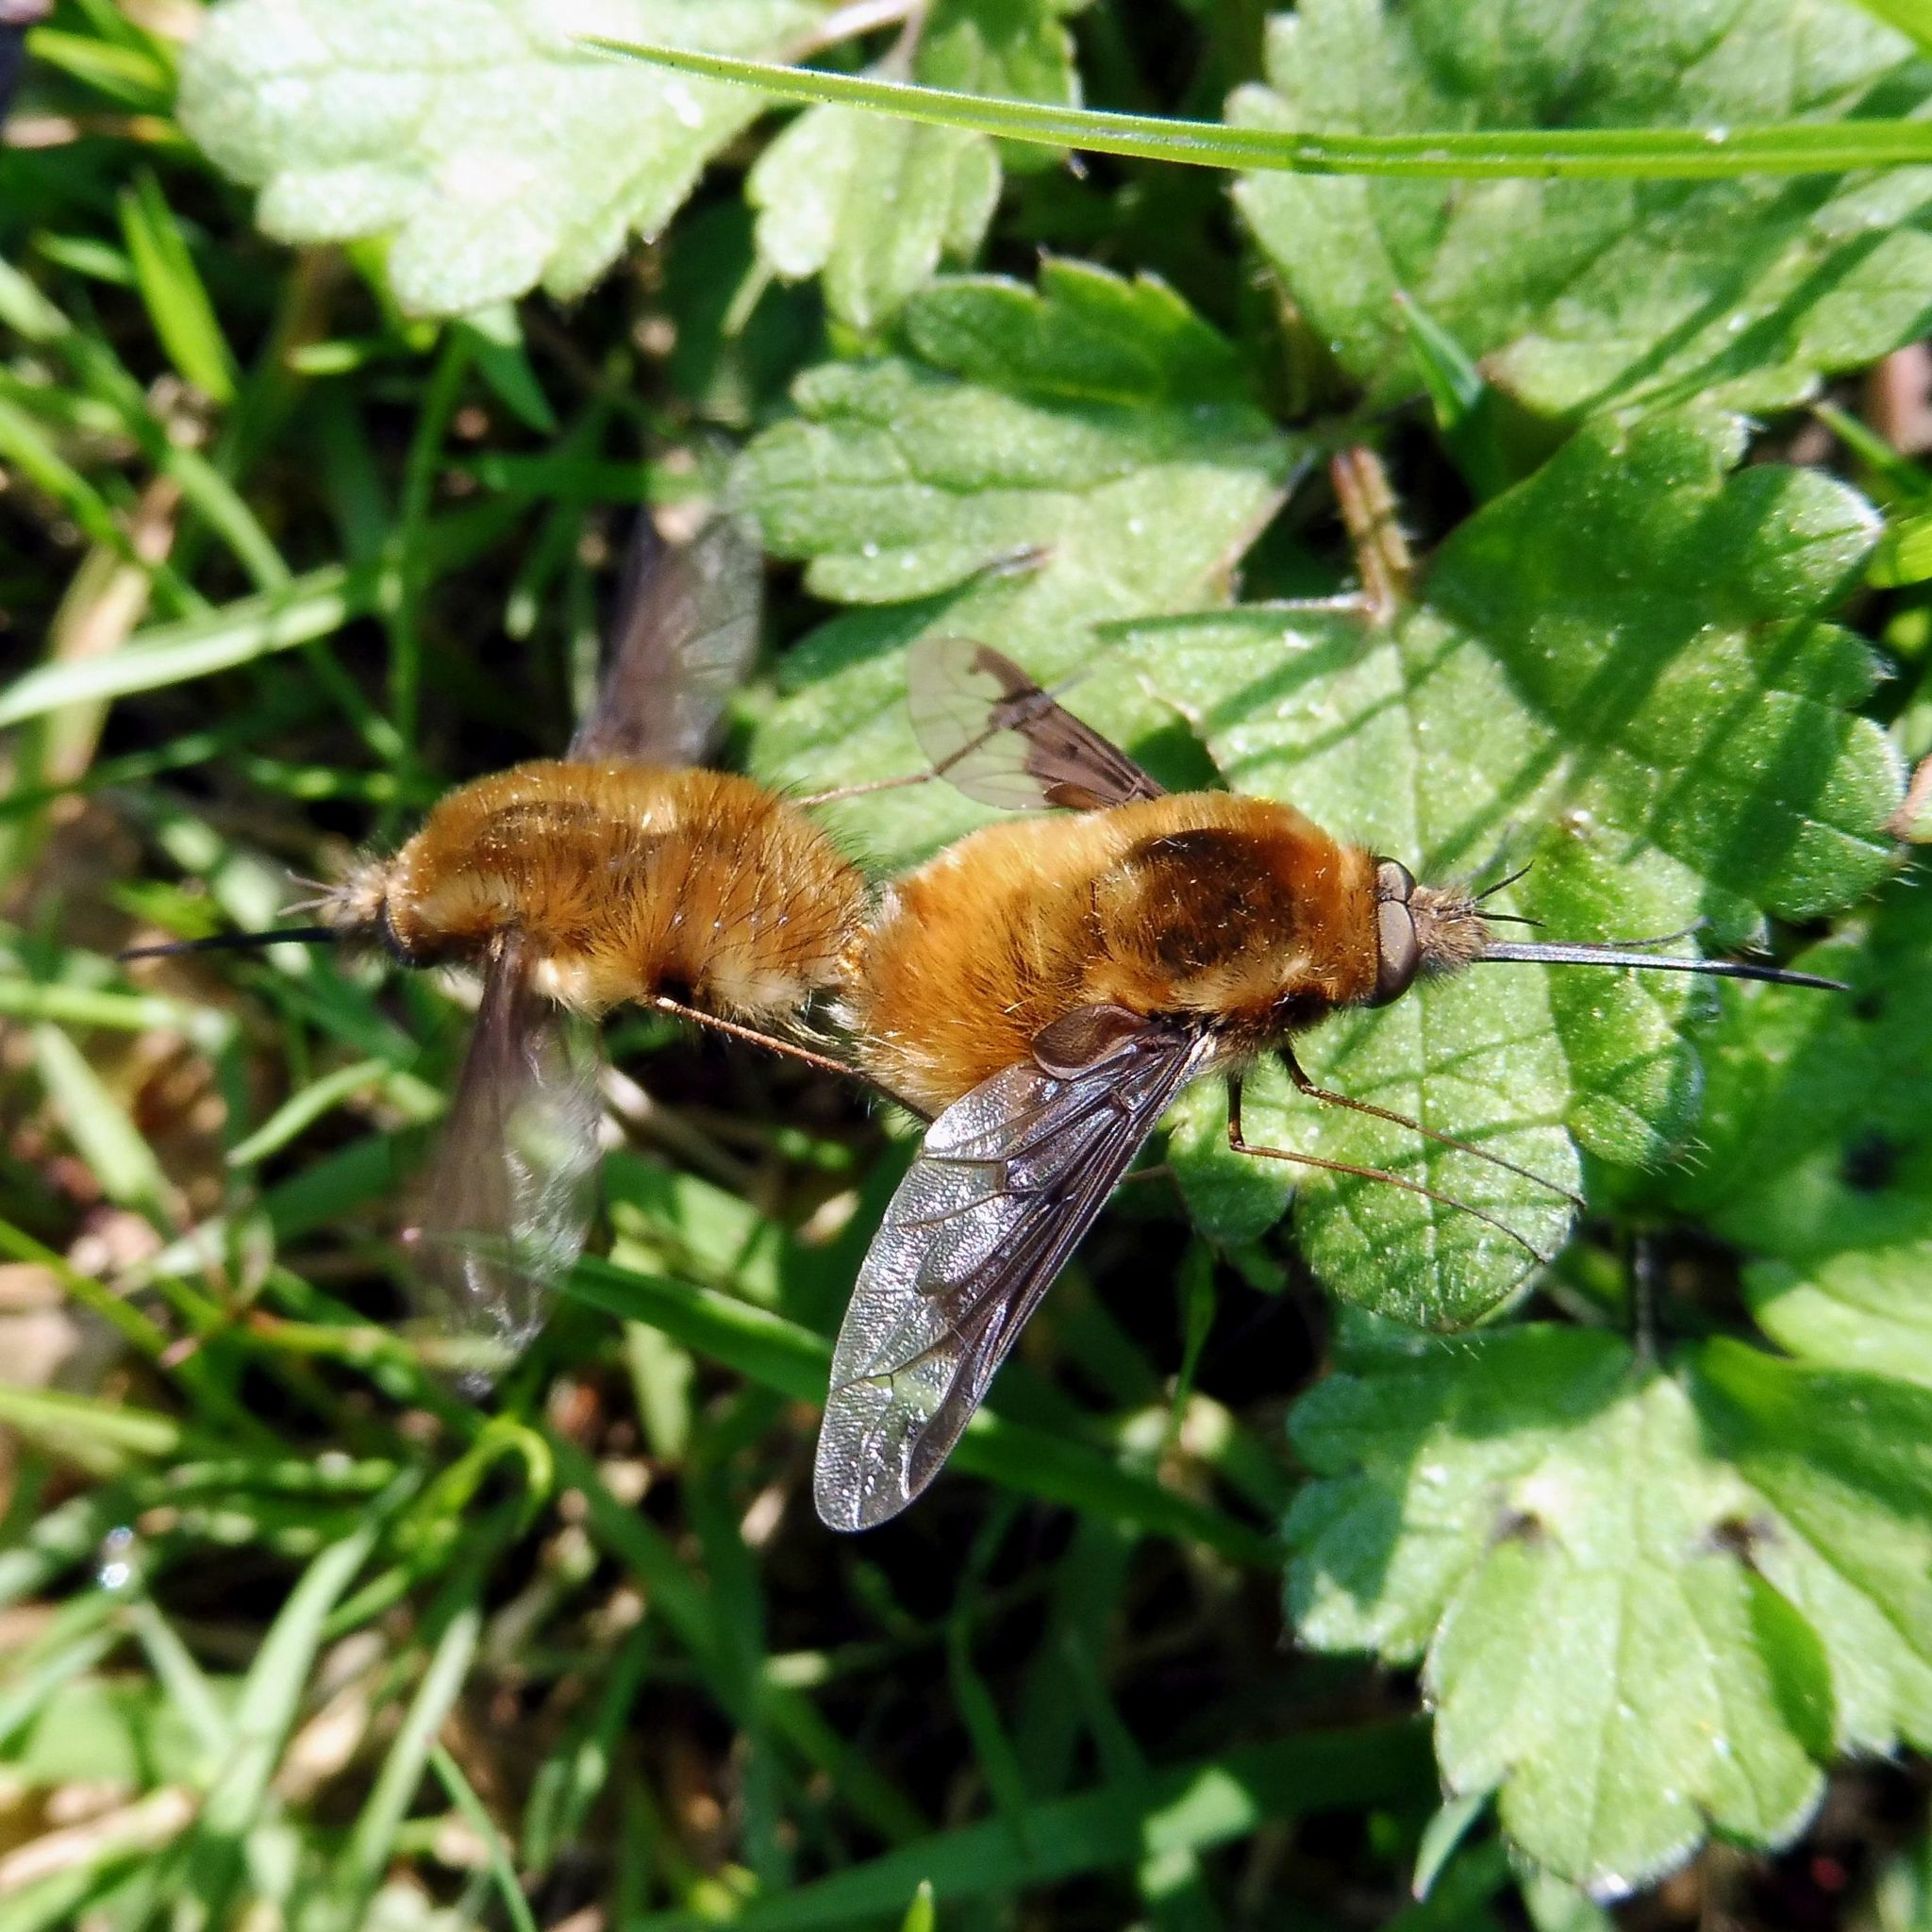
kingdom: Animalia
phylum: Arthropoda
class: Insecta
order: Diptera
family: Bombyliidae
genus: Bombylius
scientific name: Bombylius major
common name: Bee fly
